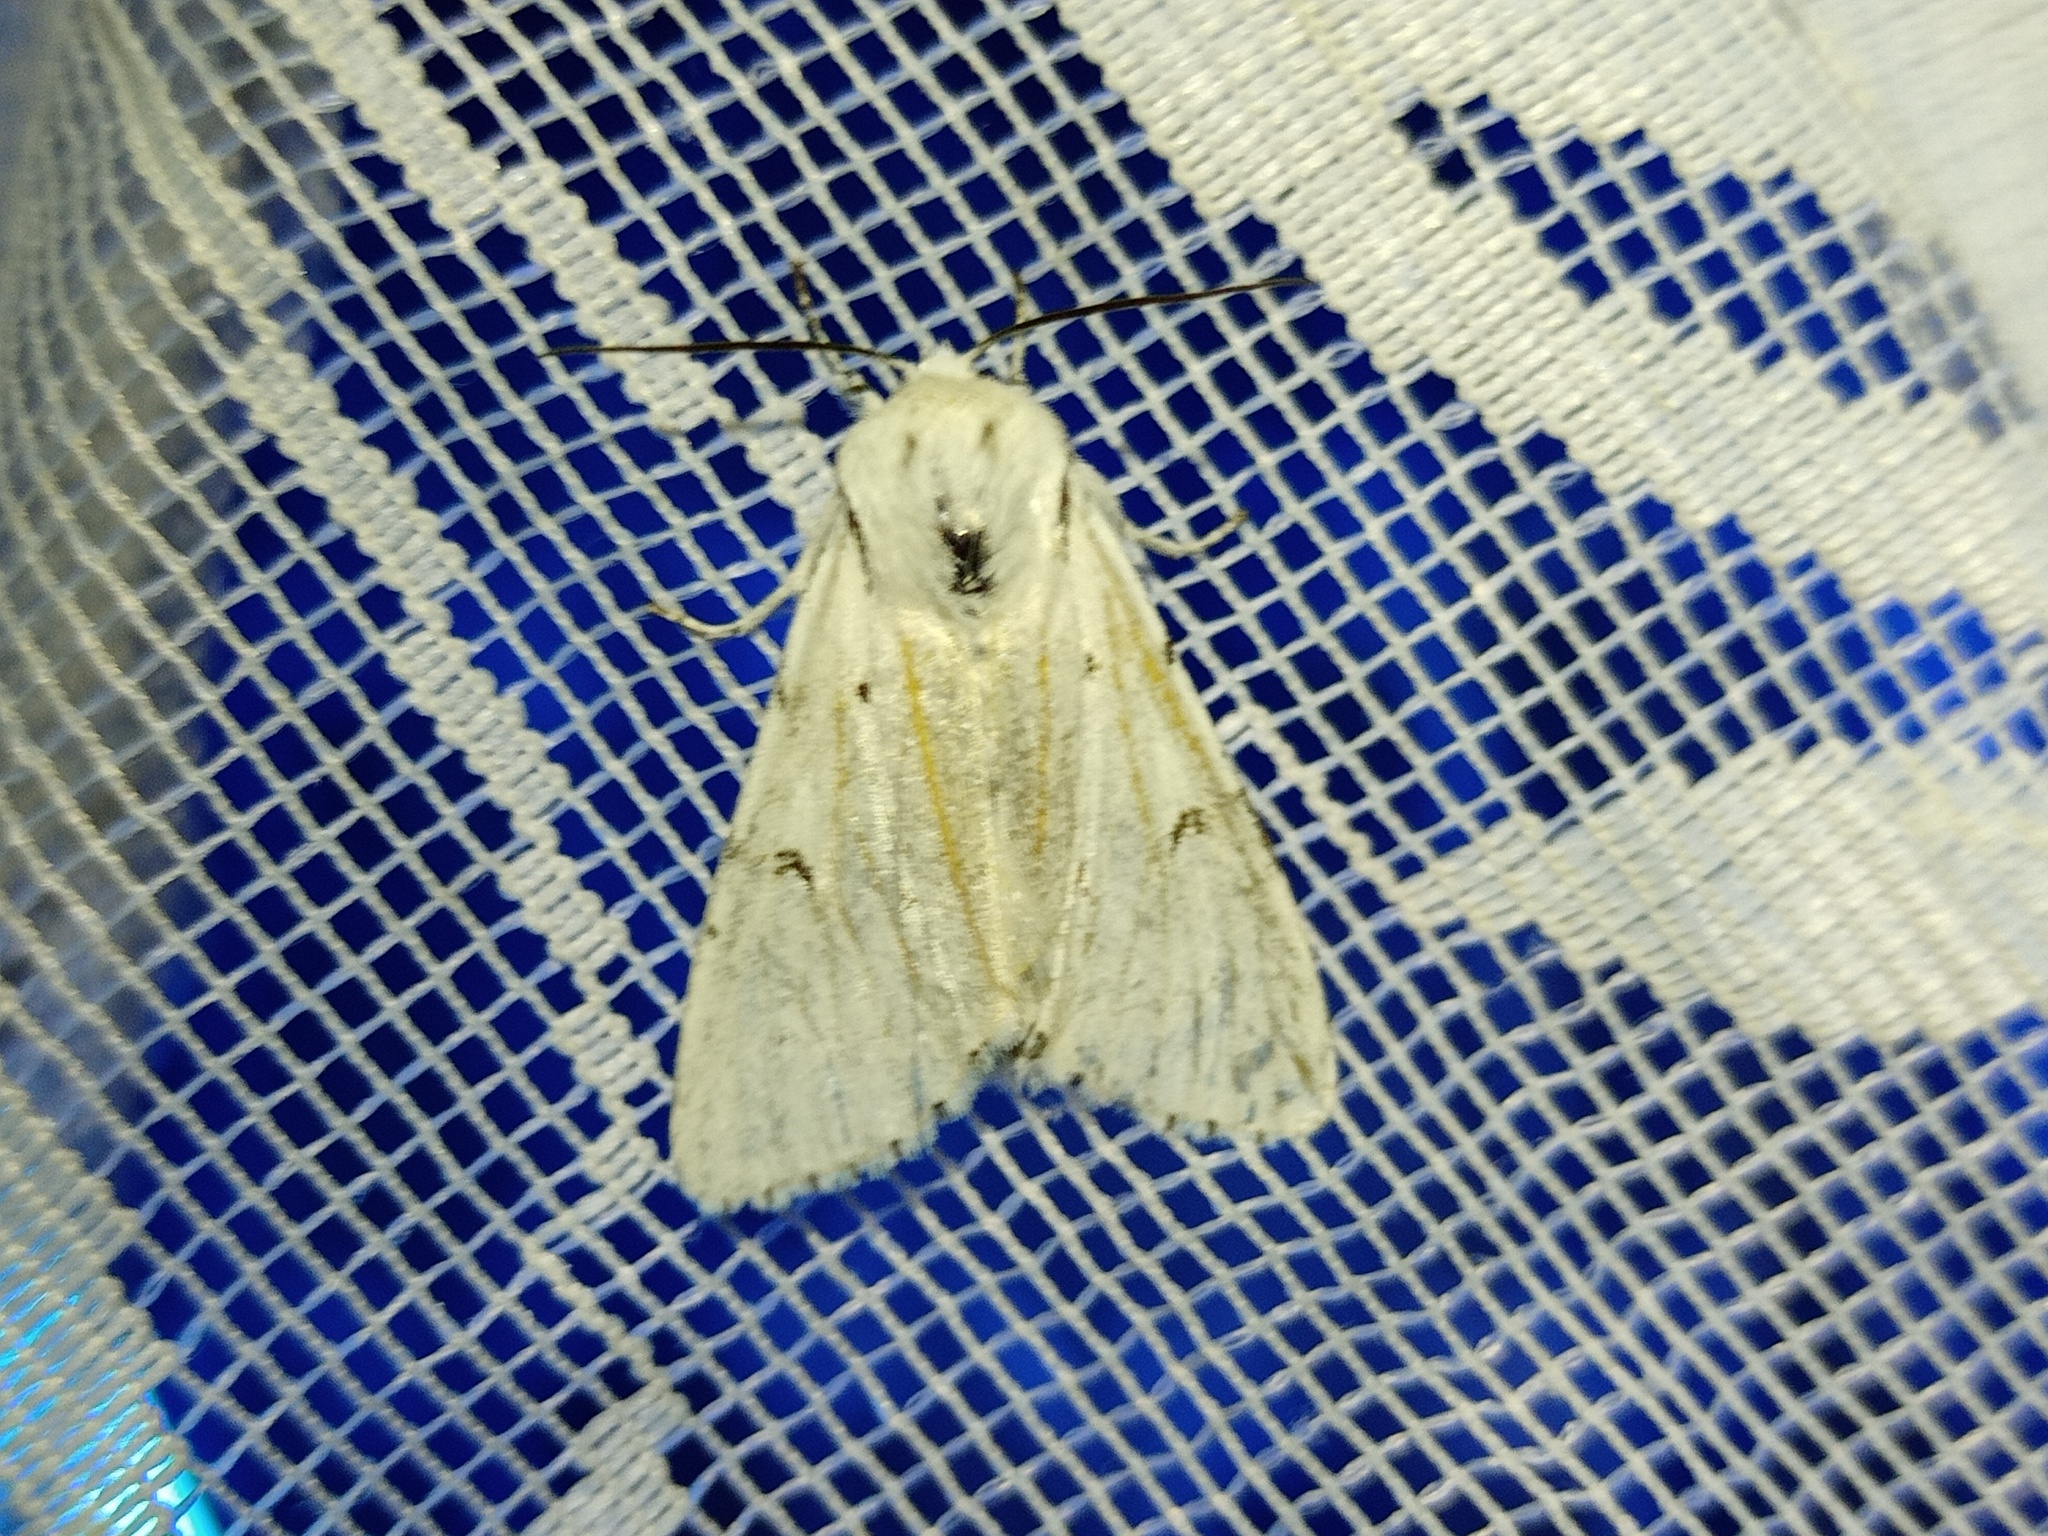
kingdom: Animalia
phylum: Arthropoda
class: Insecta
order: Lepidoptera
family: Noctuidae
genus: Acronicta
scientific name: Acronicta leporina
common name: Miller
